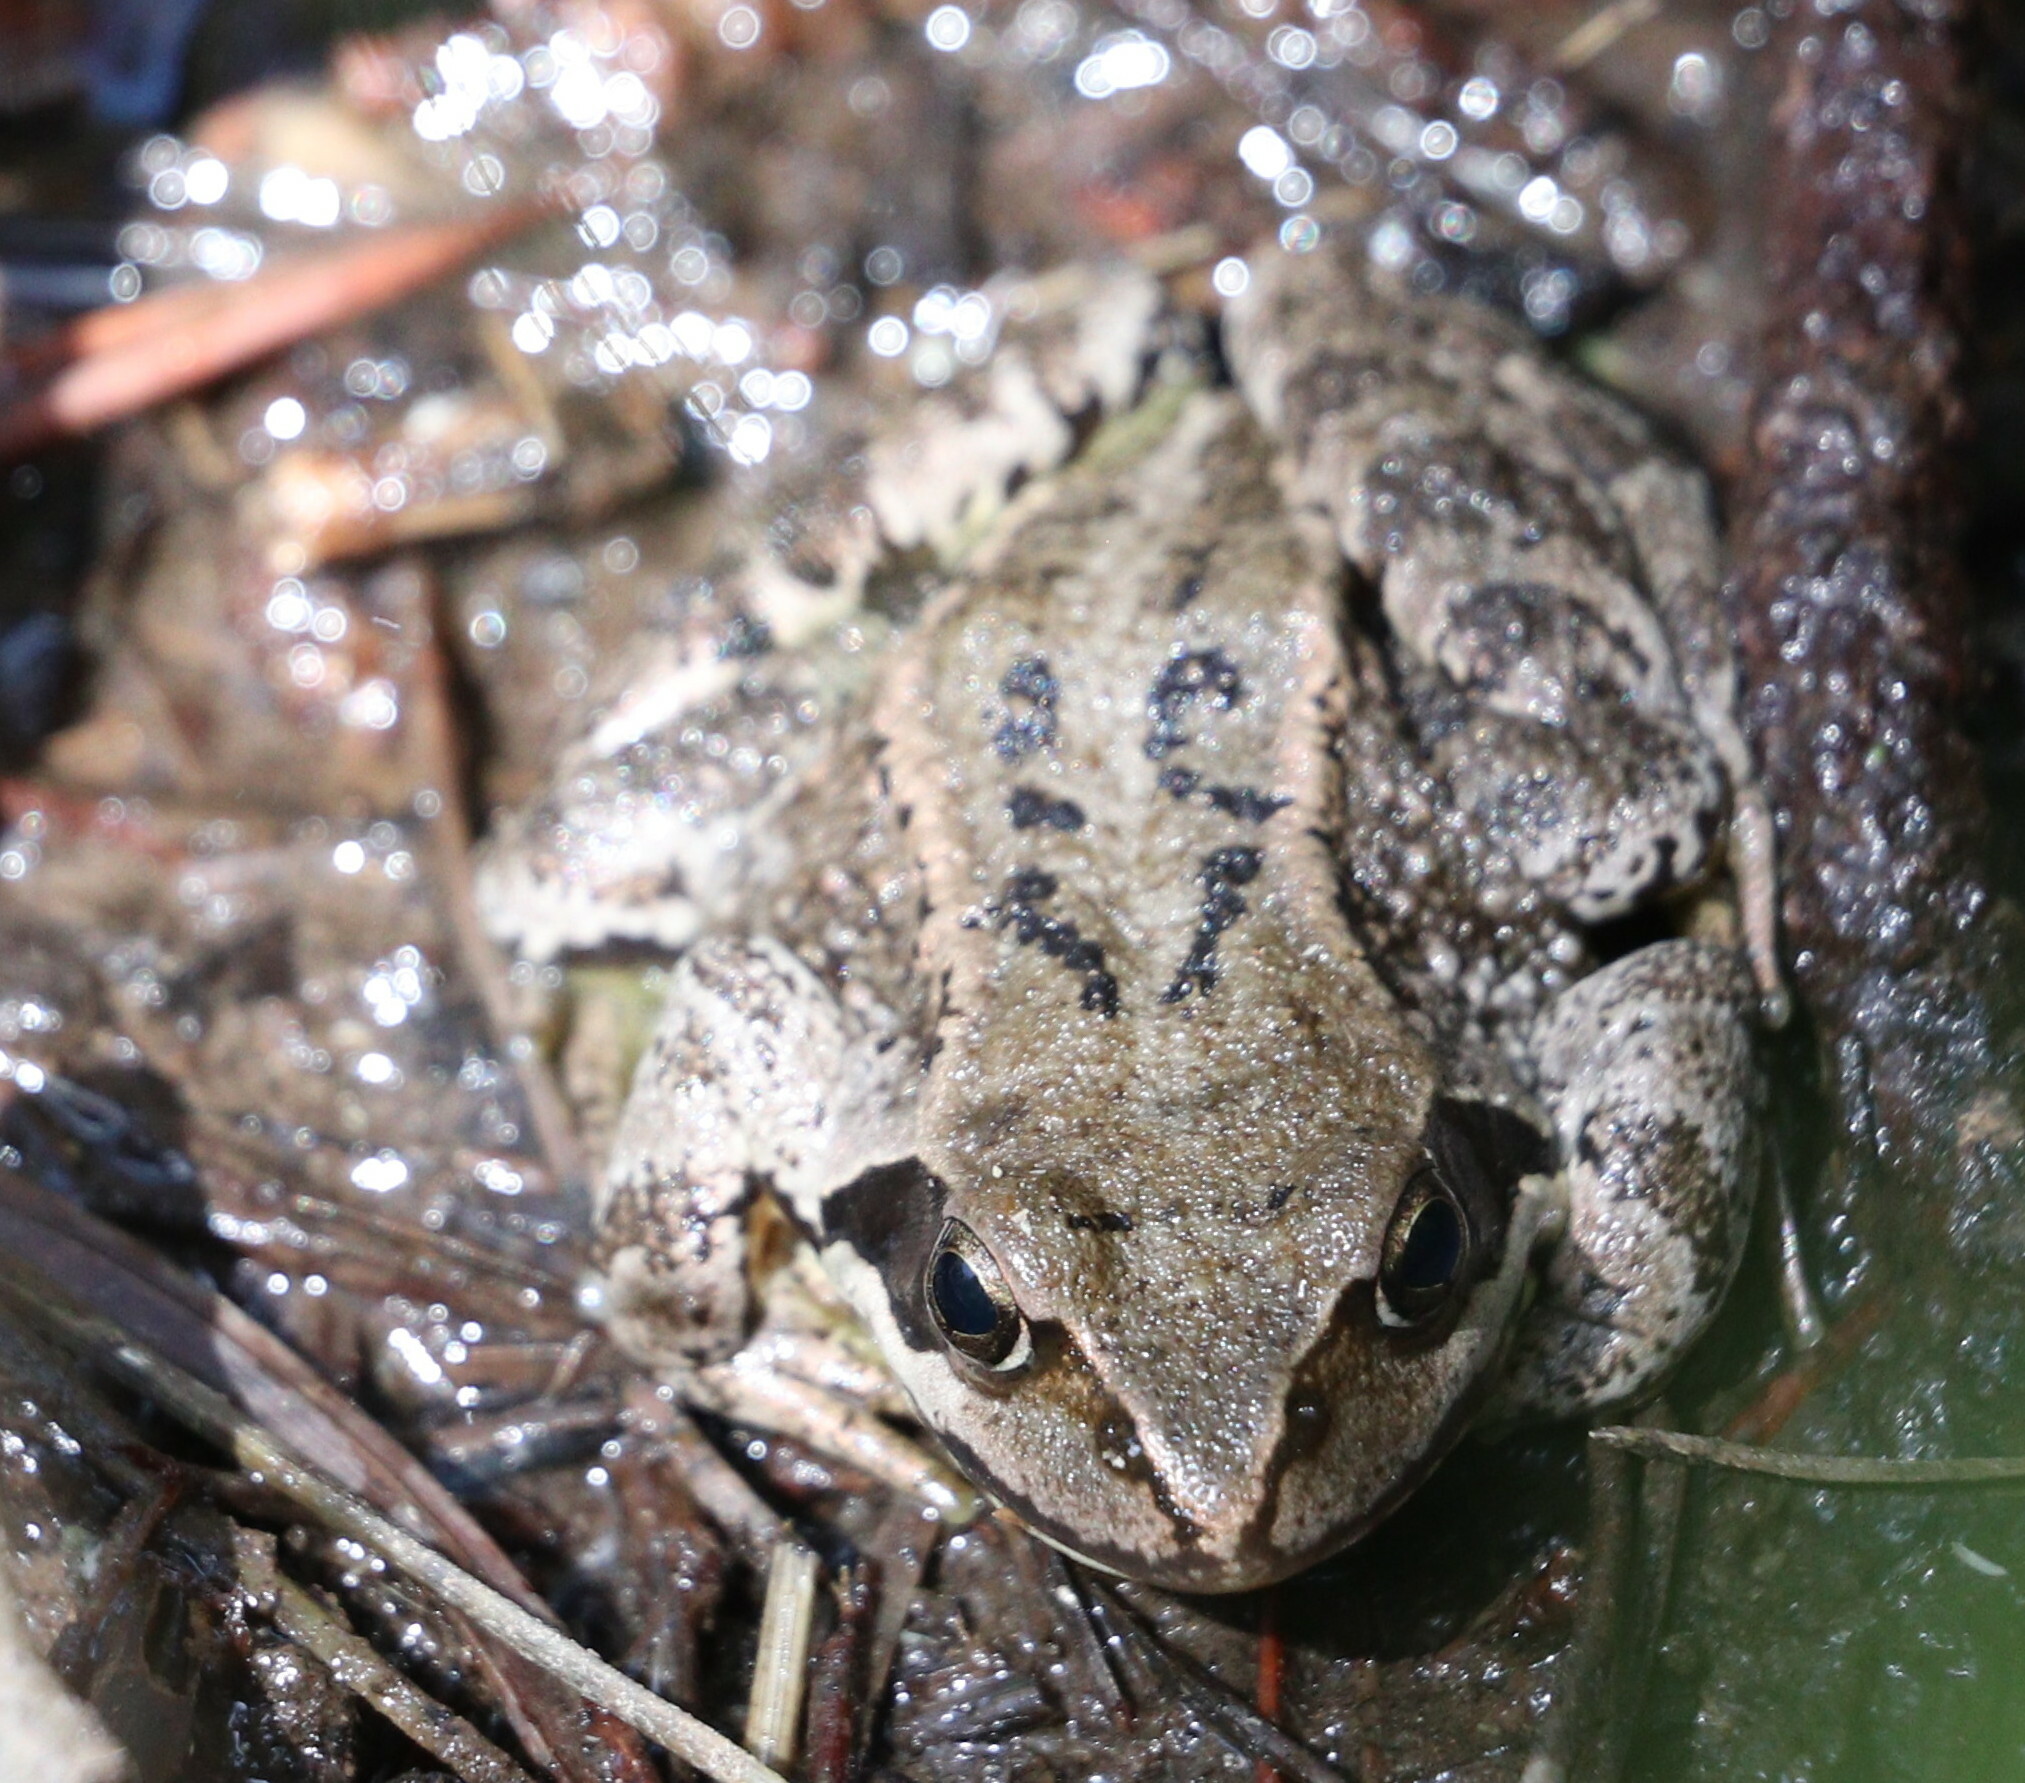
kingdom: Animalia
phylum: Chordata
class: Amphibia
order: Anura
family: Ranidae
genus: Rana
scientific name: Rana temporaria
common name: Common frog
